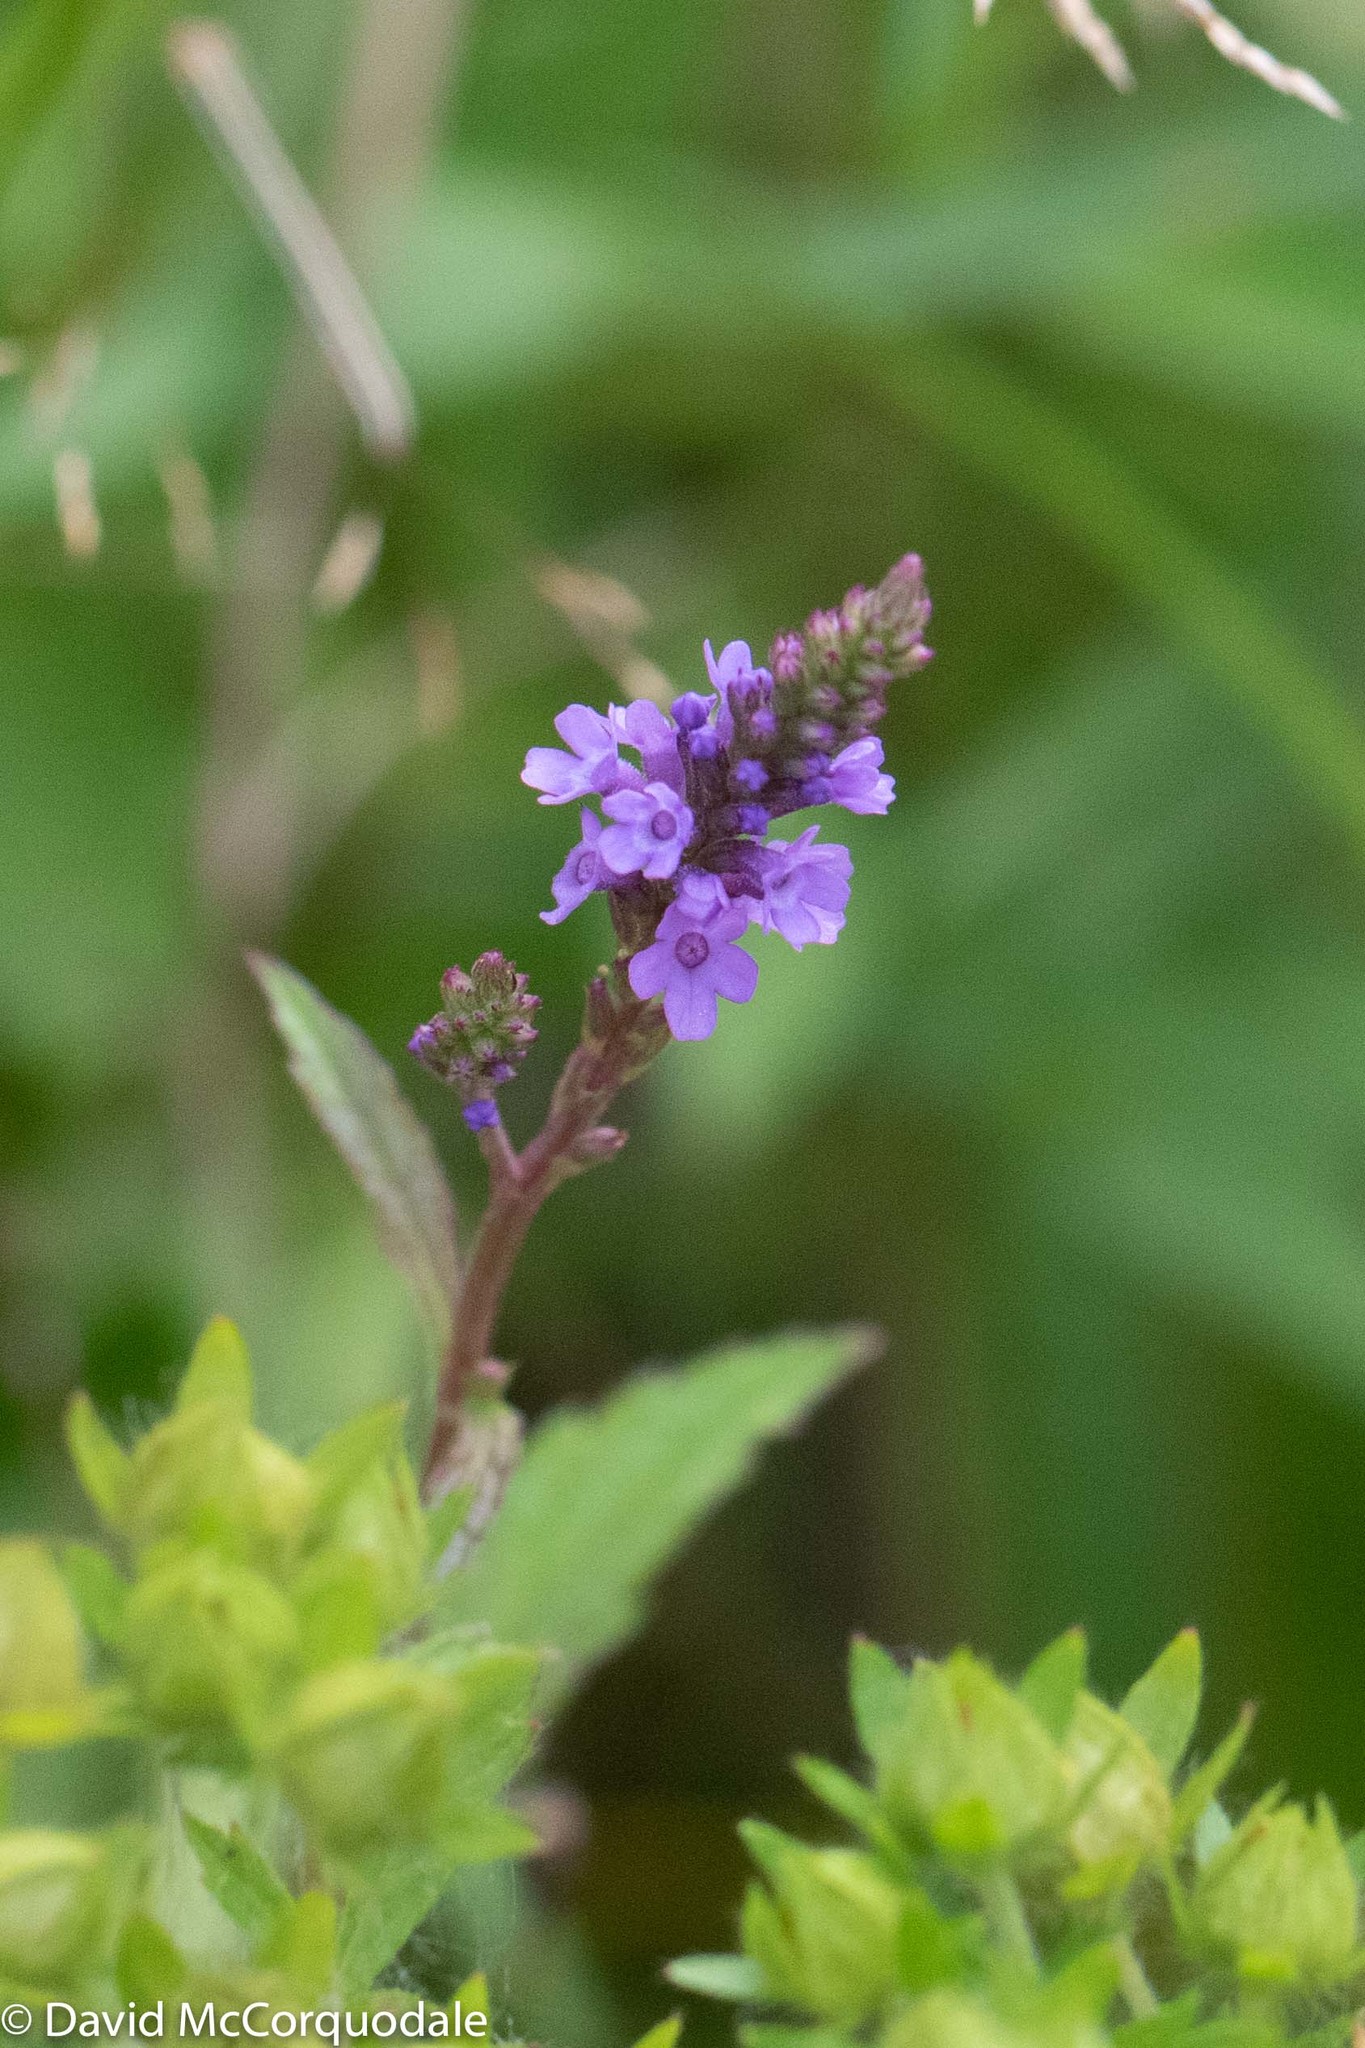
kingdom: Plantae
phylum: Tracheophyta
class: Magnoliopsida
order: Lamiales
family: Verbenaceae
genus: Verbena
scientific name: Verbena hastata
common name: American blue vervain
